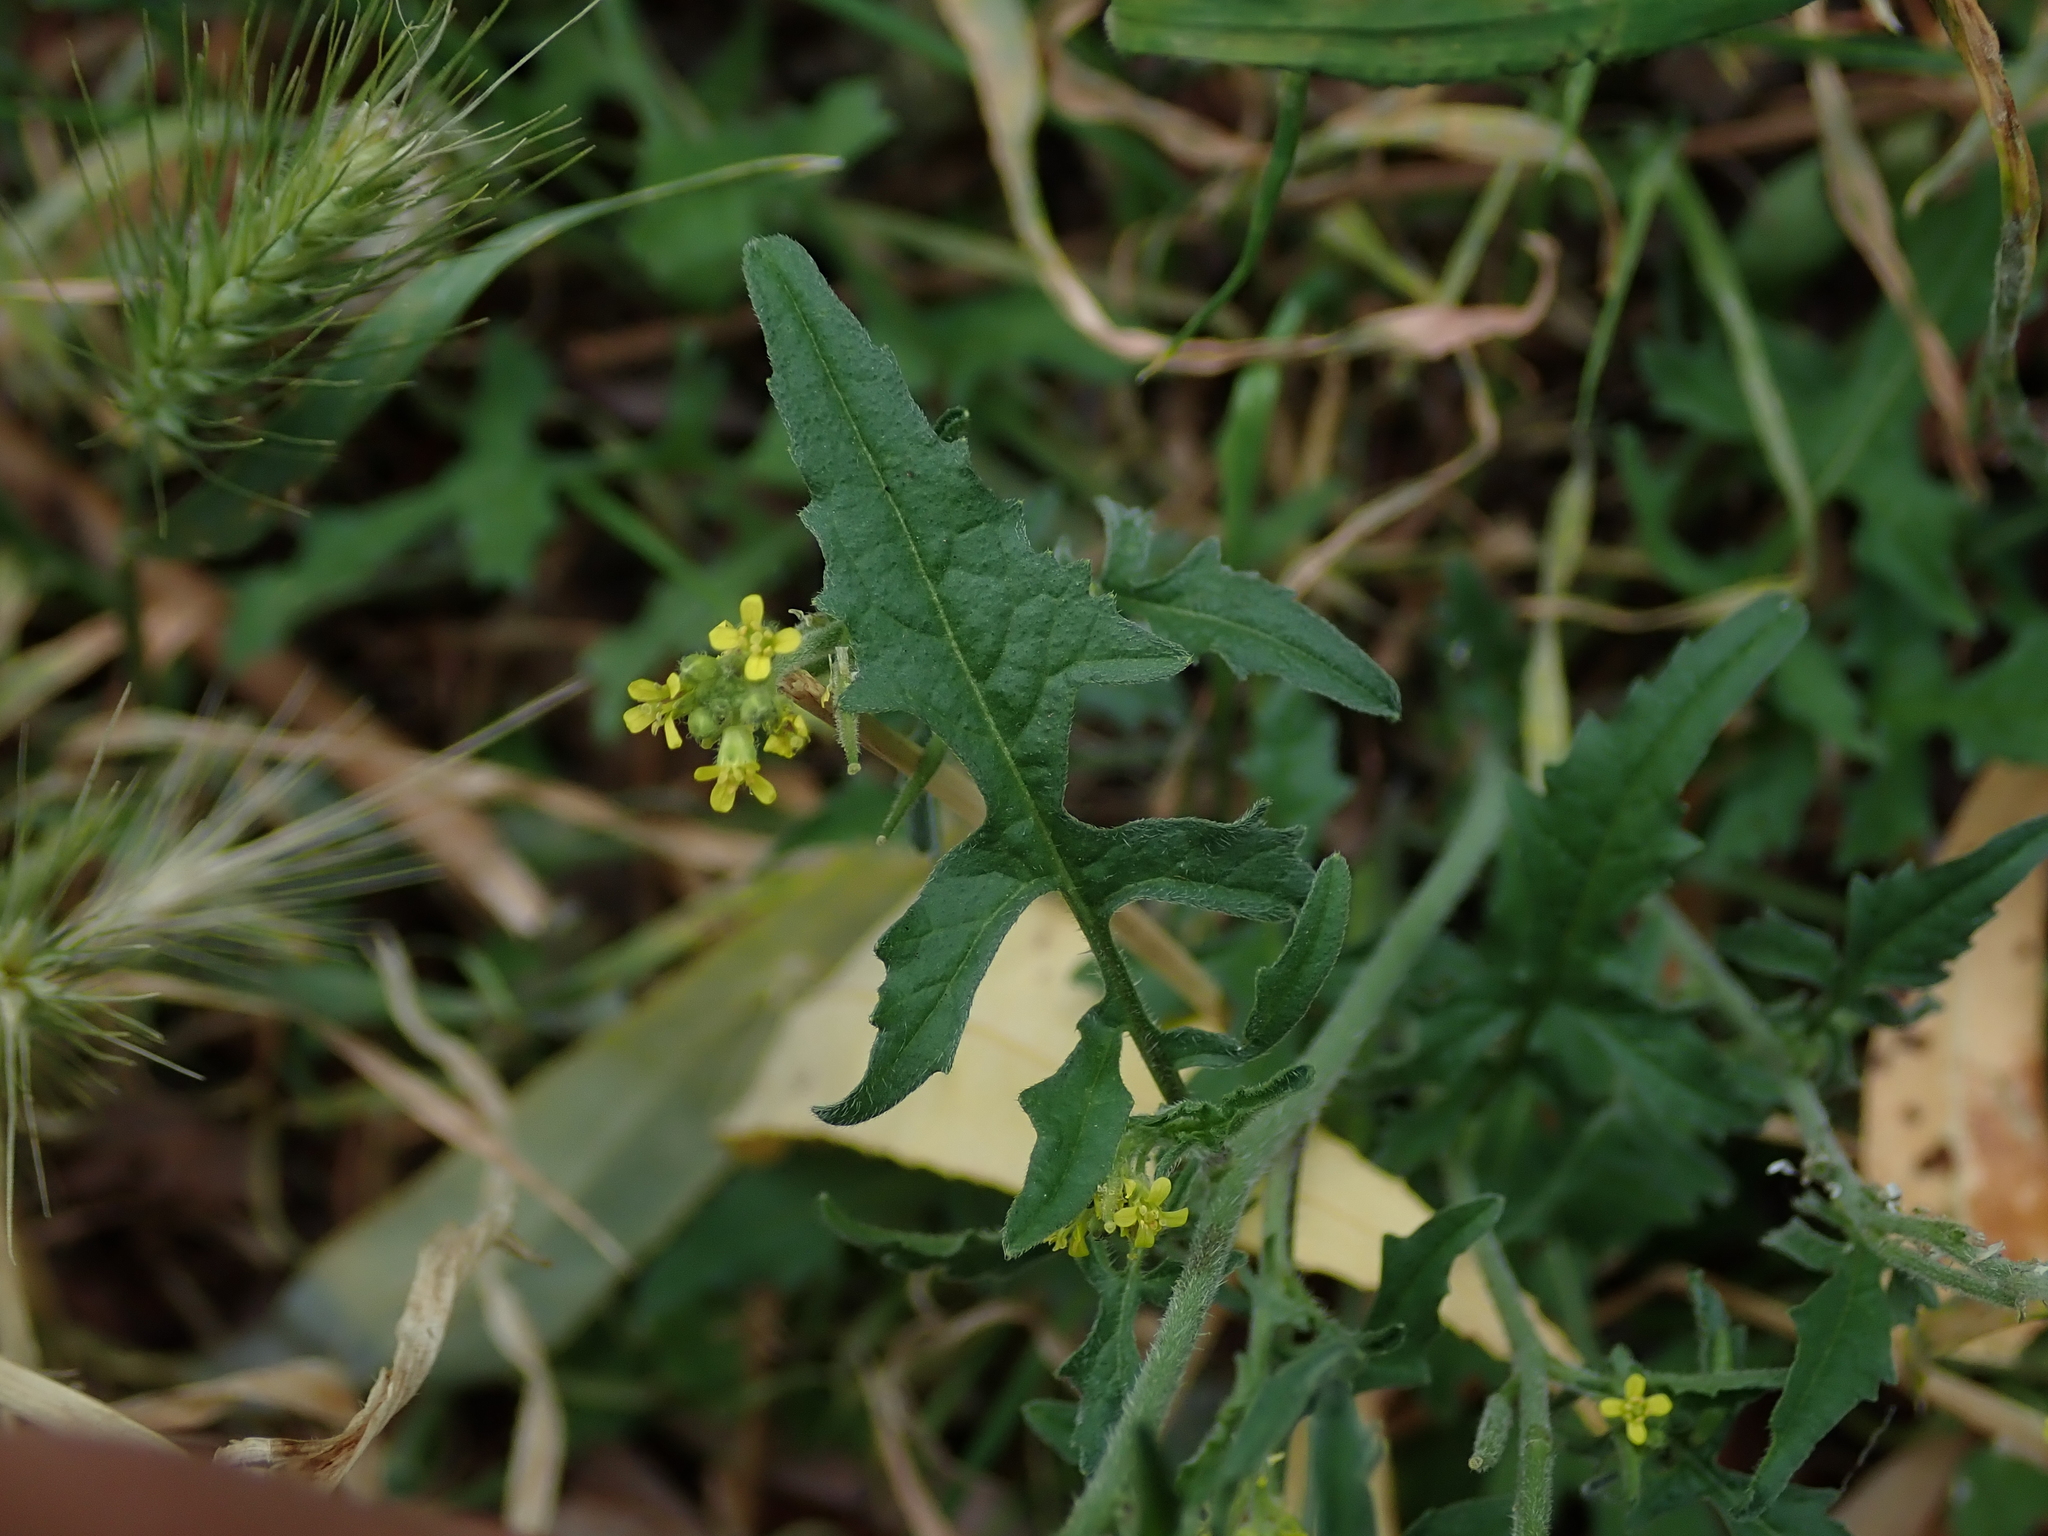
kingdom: Plantae
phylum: Tracheophyta
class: Magnoliopsida
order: Brassicales
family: Brassicaceae
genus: Sisymbrium
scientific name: Sisymbrium officinale
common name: Hedge mustard
